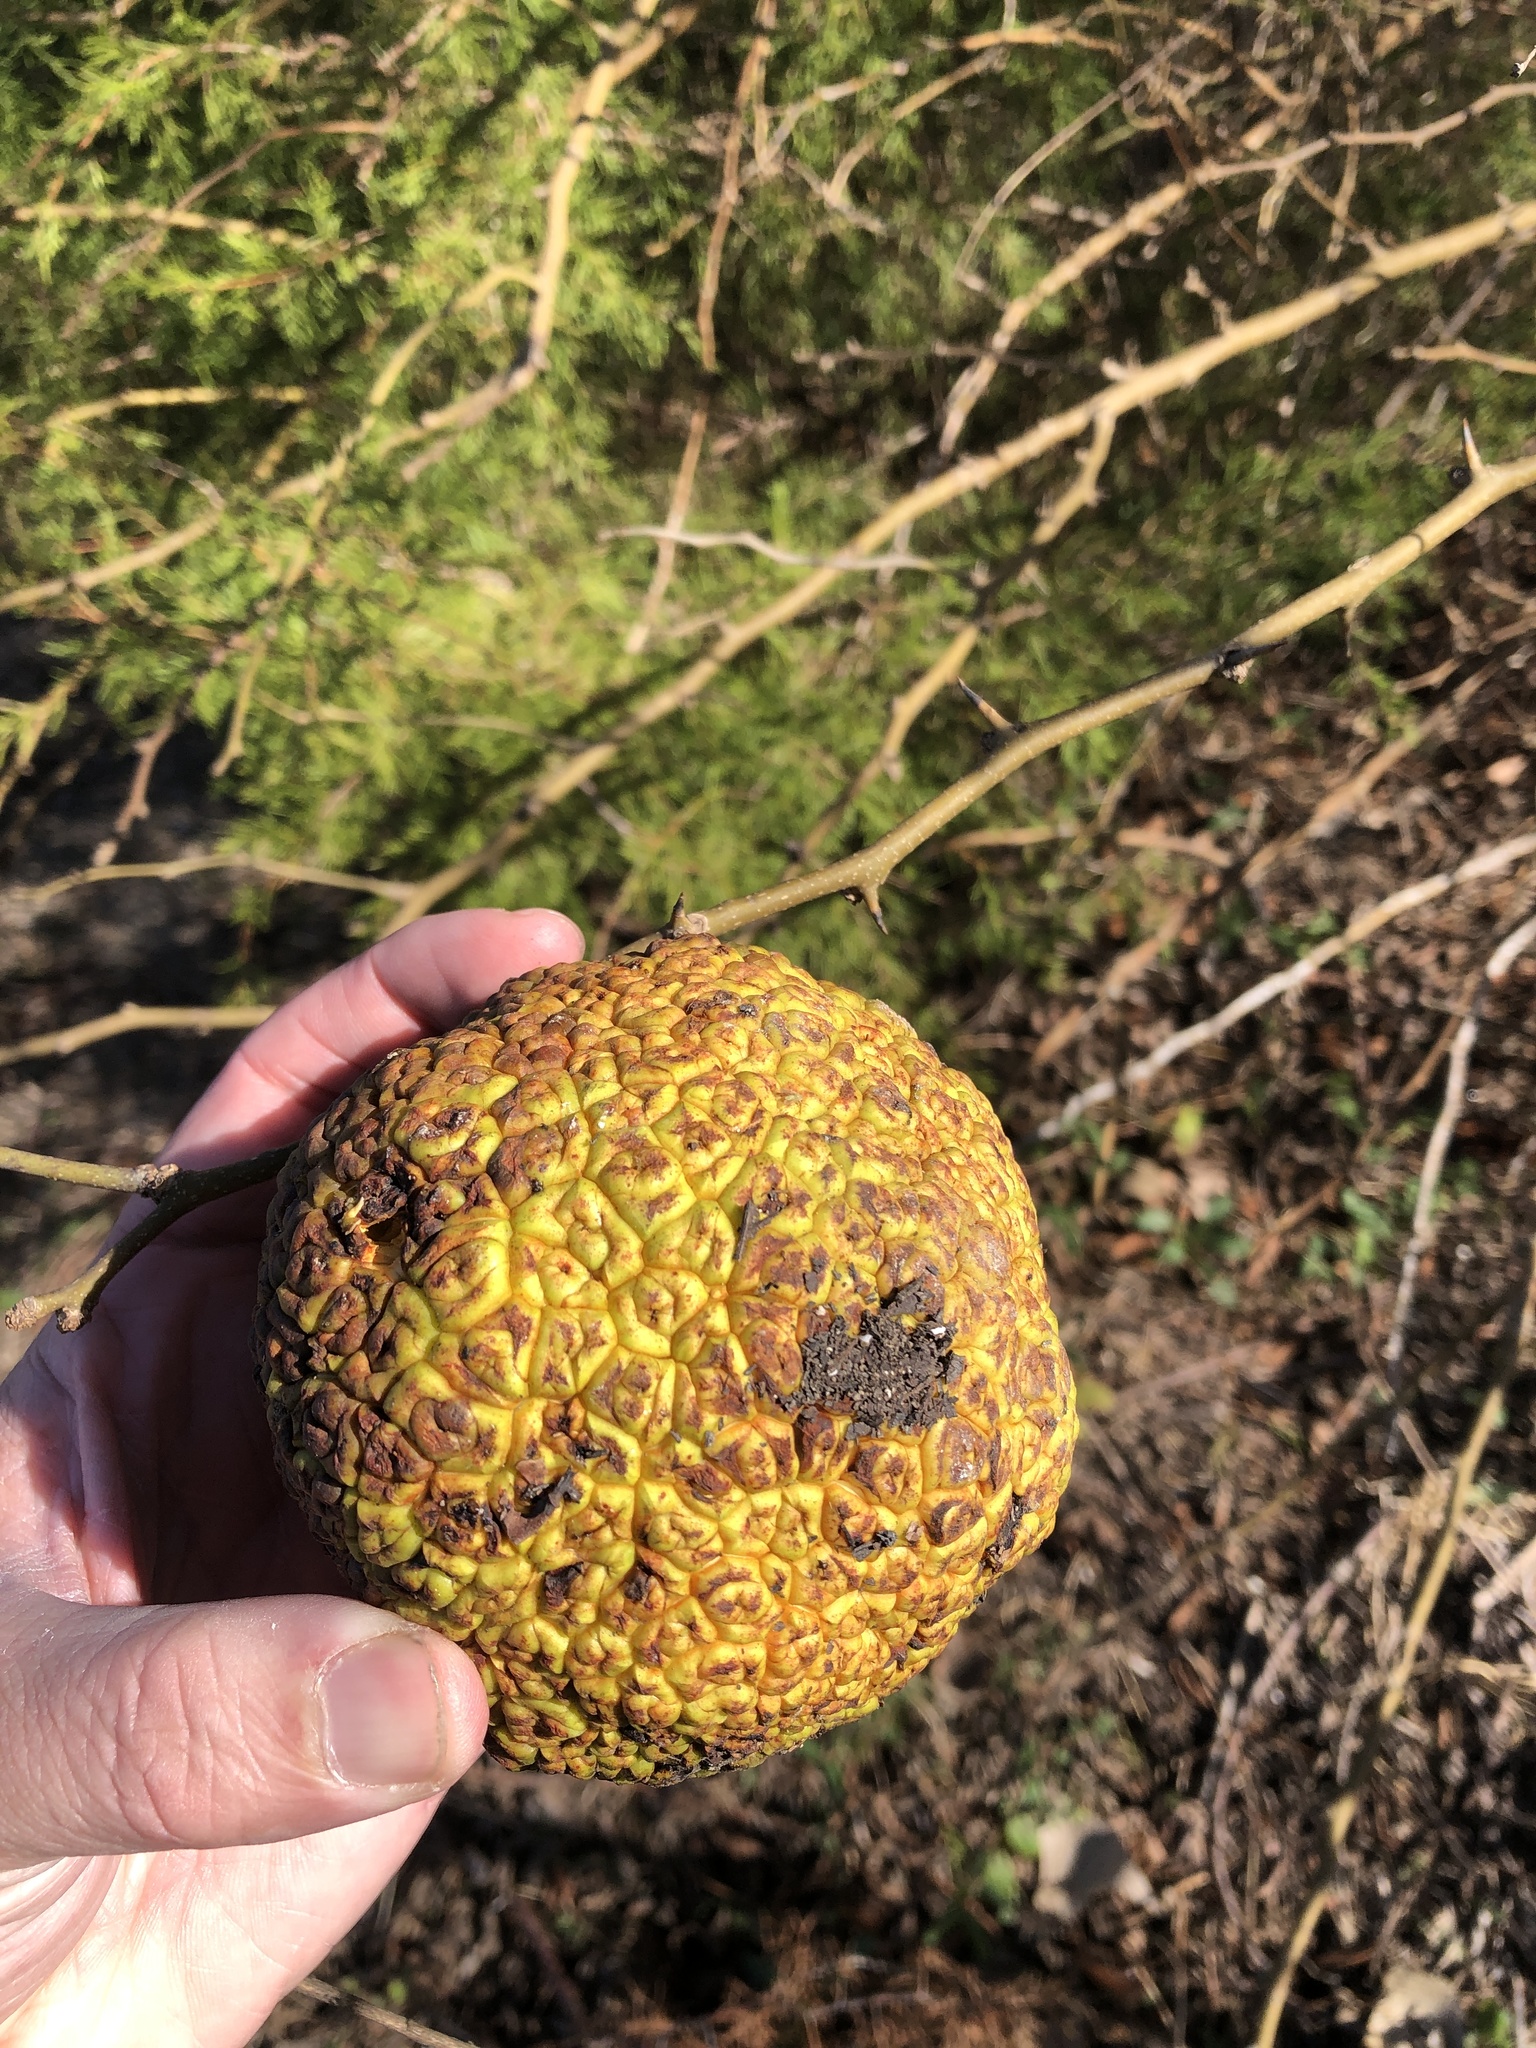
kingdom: Plantae
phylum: Tracheophyta
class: Magnoliopsida
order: Rosales
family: Moraceae
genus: Maclura
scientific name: Maclura pomifera
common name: Osage-orange
